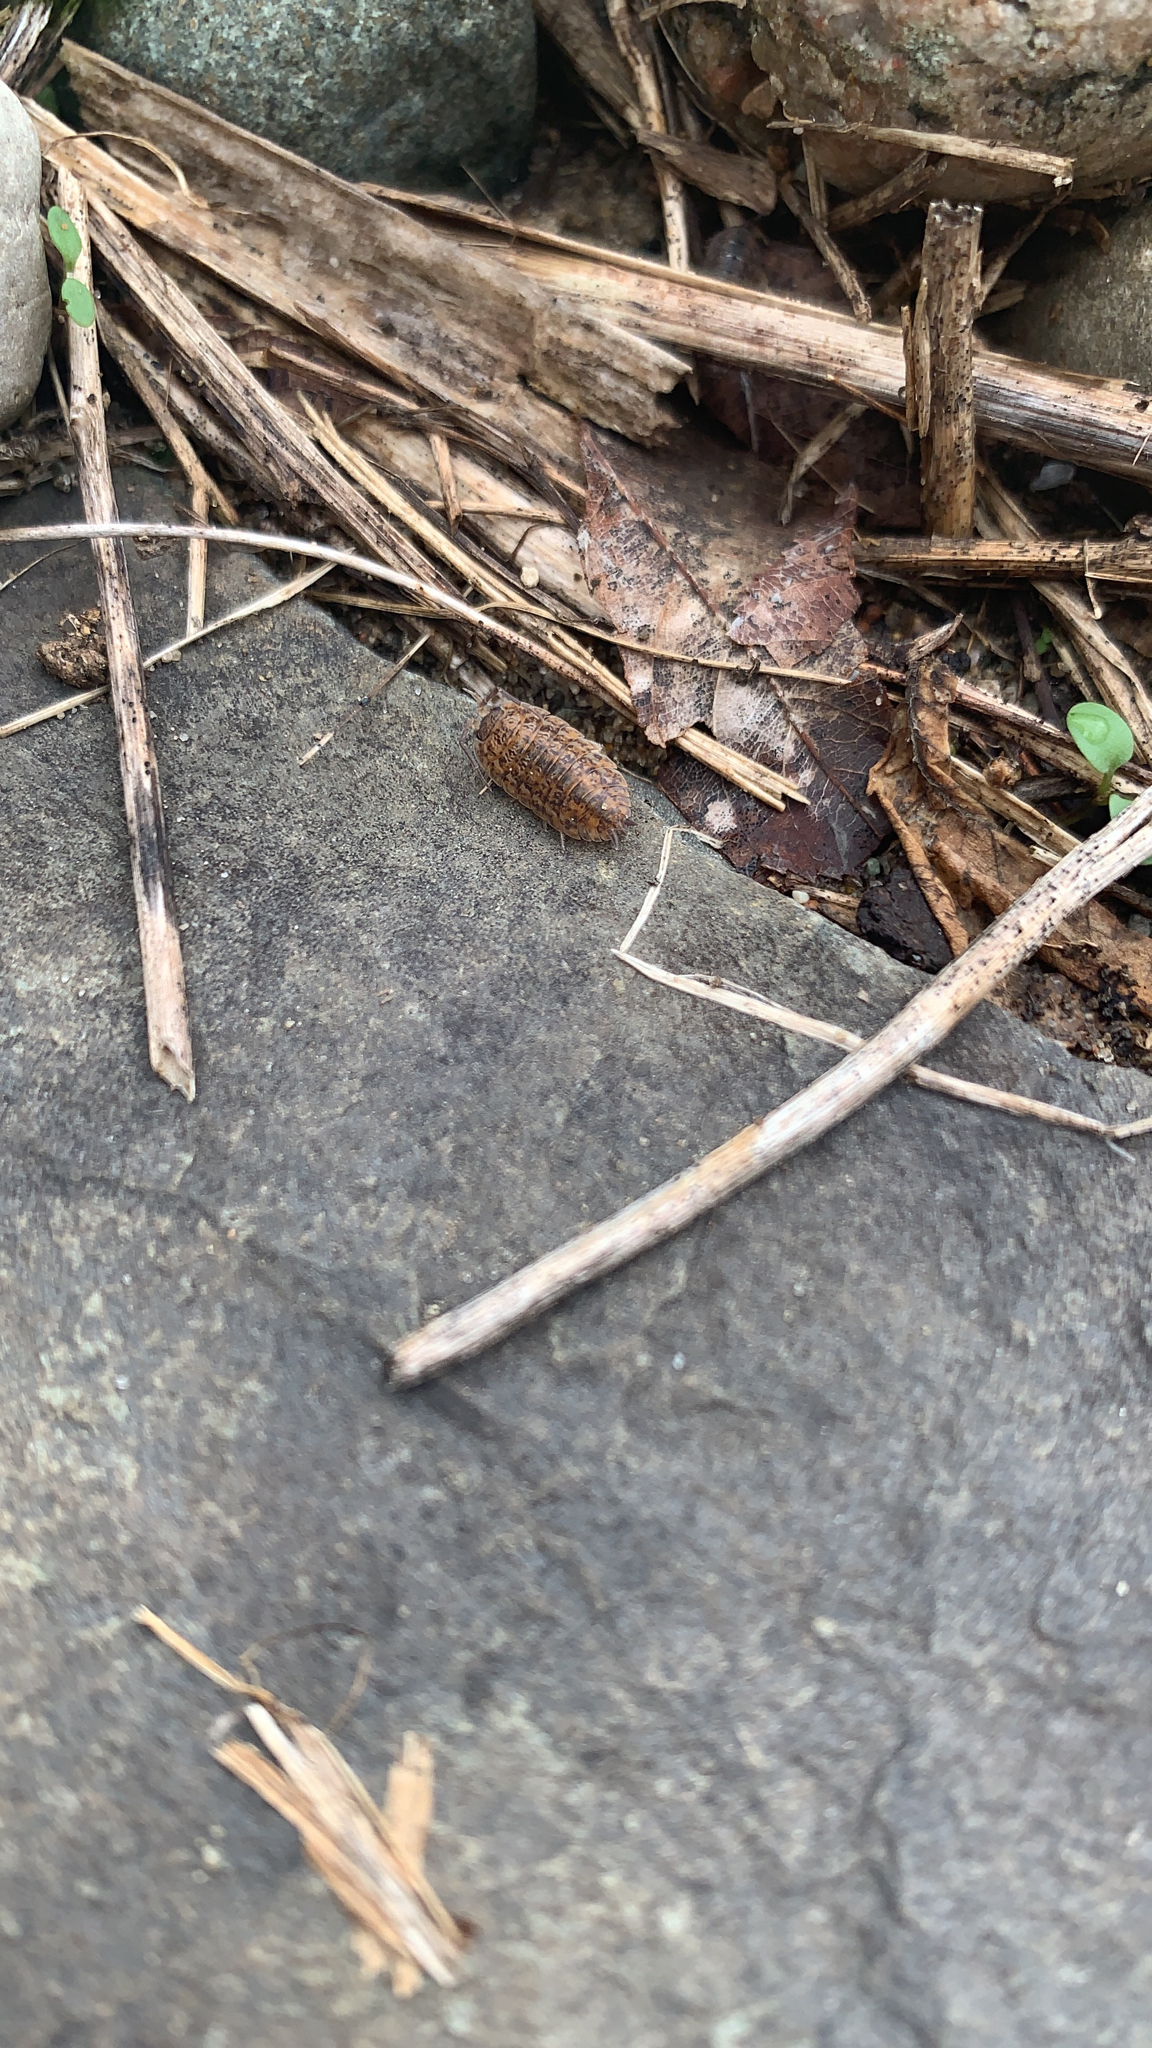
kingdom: Animalia
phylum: Arthropoda
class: Malacostraca
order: Isopoda
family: Trachelipodidae
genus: Trachelipus
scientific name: Trachelipus rathkii
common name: Isopod
